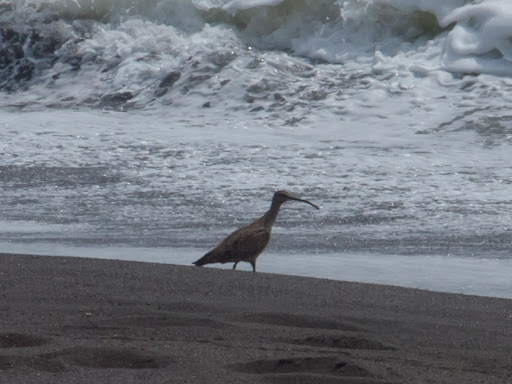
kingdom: Animalia
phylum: Chordata
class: Aves
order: Charadriiformes
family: Scolopacidae
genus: Numenius
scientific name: Numenius phaeopus
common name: Whimbrel
